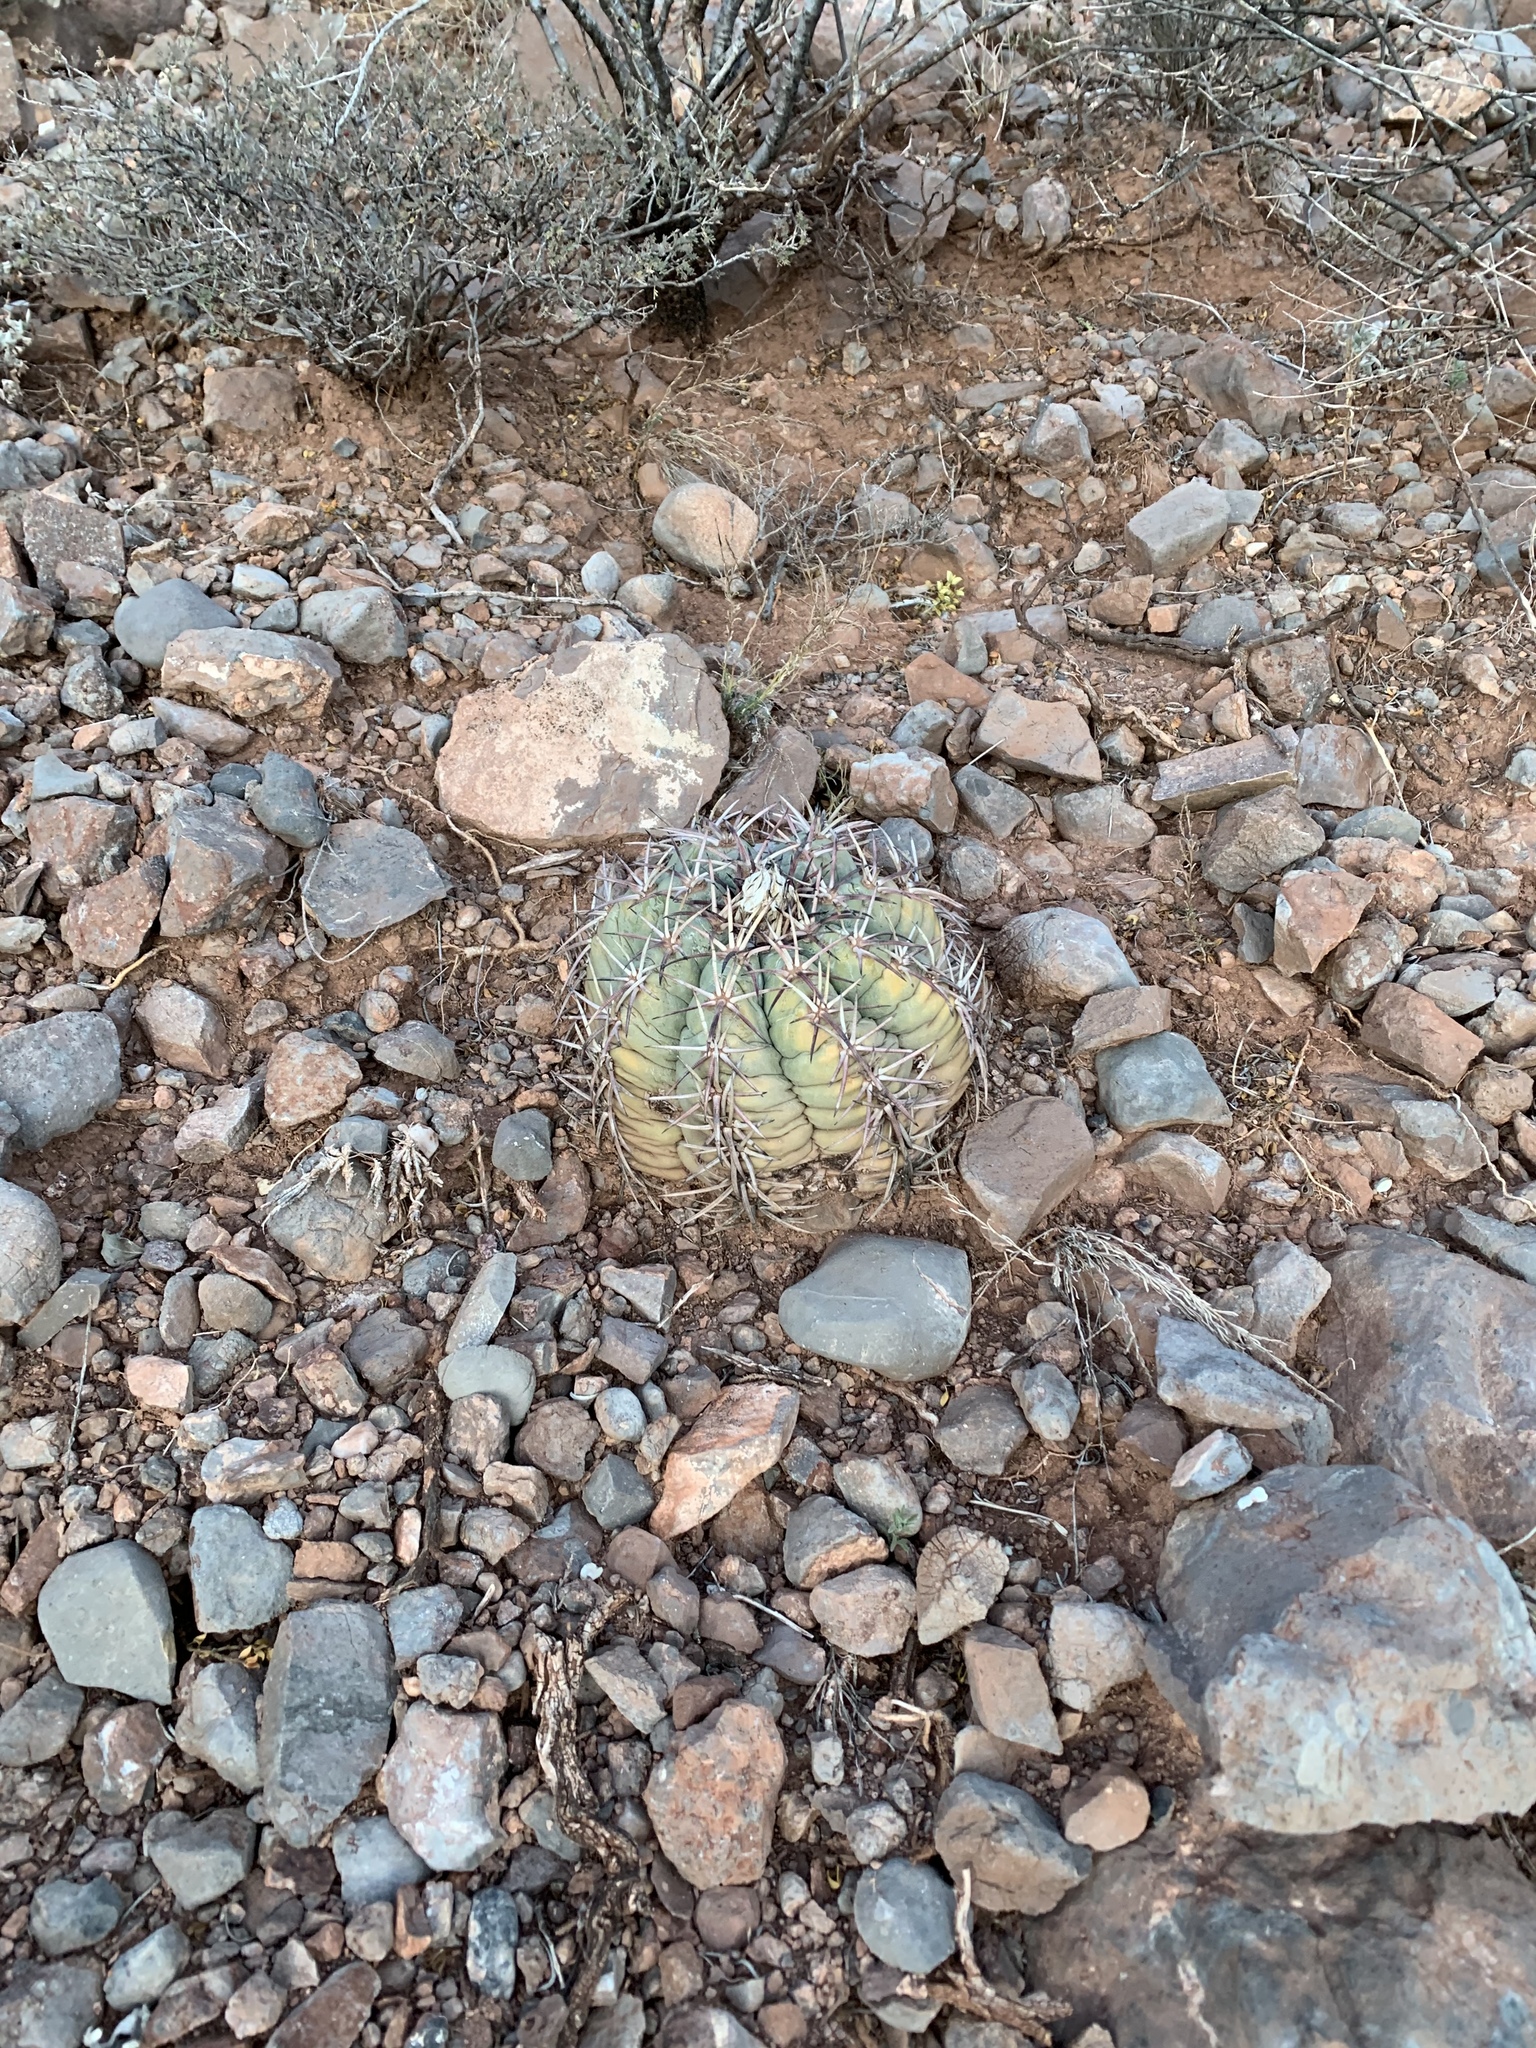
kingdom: Plantae
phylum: Tracheophyta
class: Magnoliopsida
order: Caryophyllales
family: Cactaceae
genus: Echinocactus
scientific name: Echinocactus horizonthalonius
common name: Devilshead
